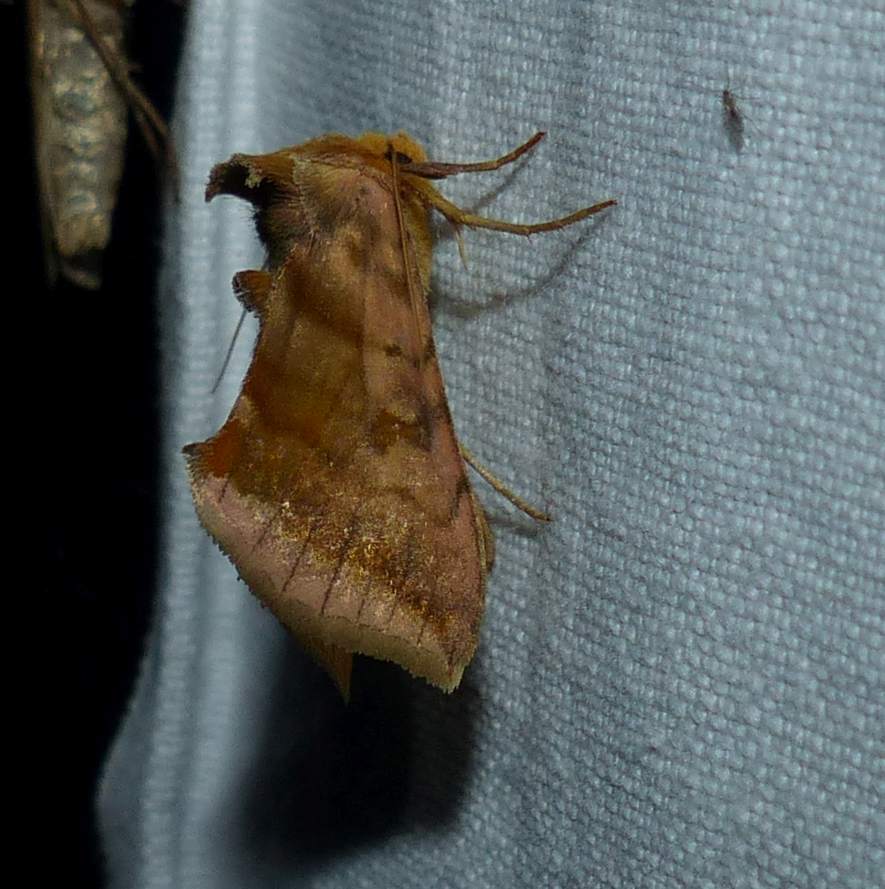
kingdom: Animalia
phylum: Arthropoda
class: Insecta
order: Lepidoptera
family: Noctuidae
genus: Allagrapha
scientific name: Allagrapha aerea
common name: Unspotted looper moth
